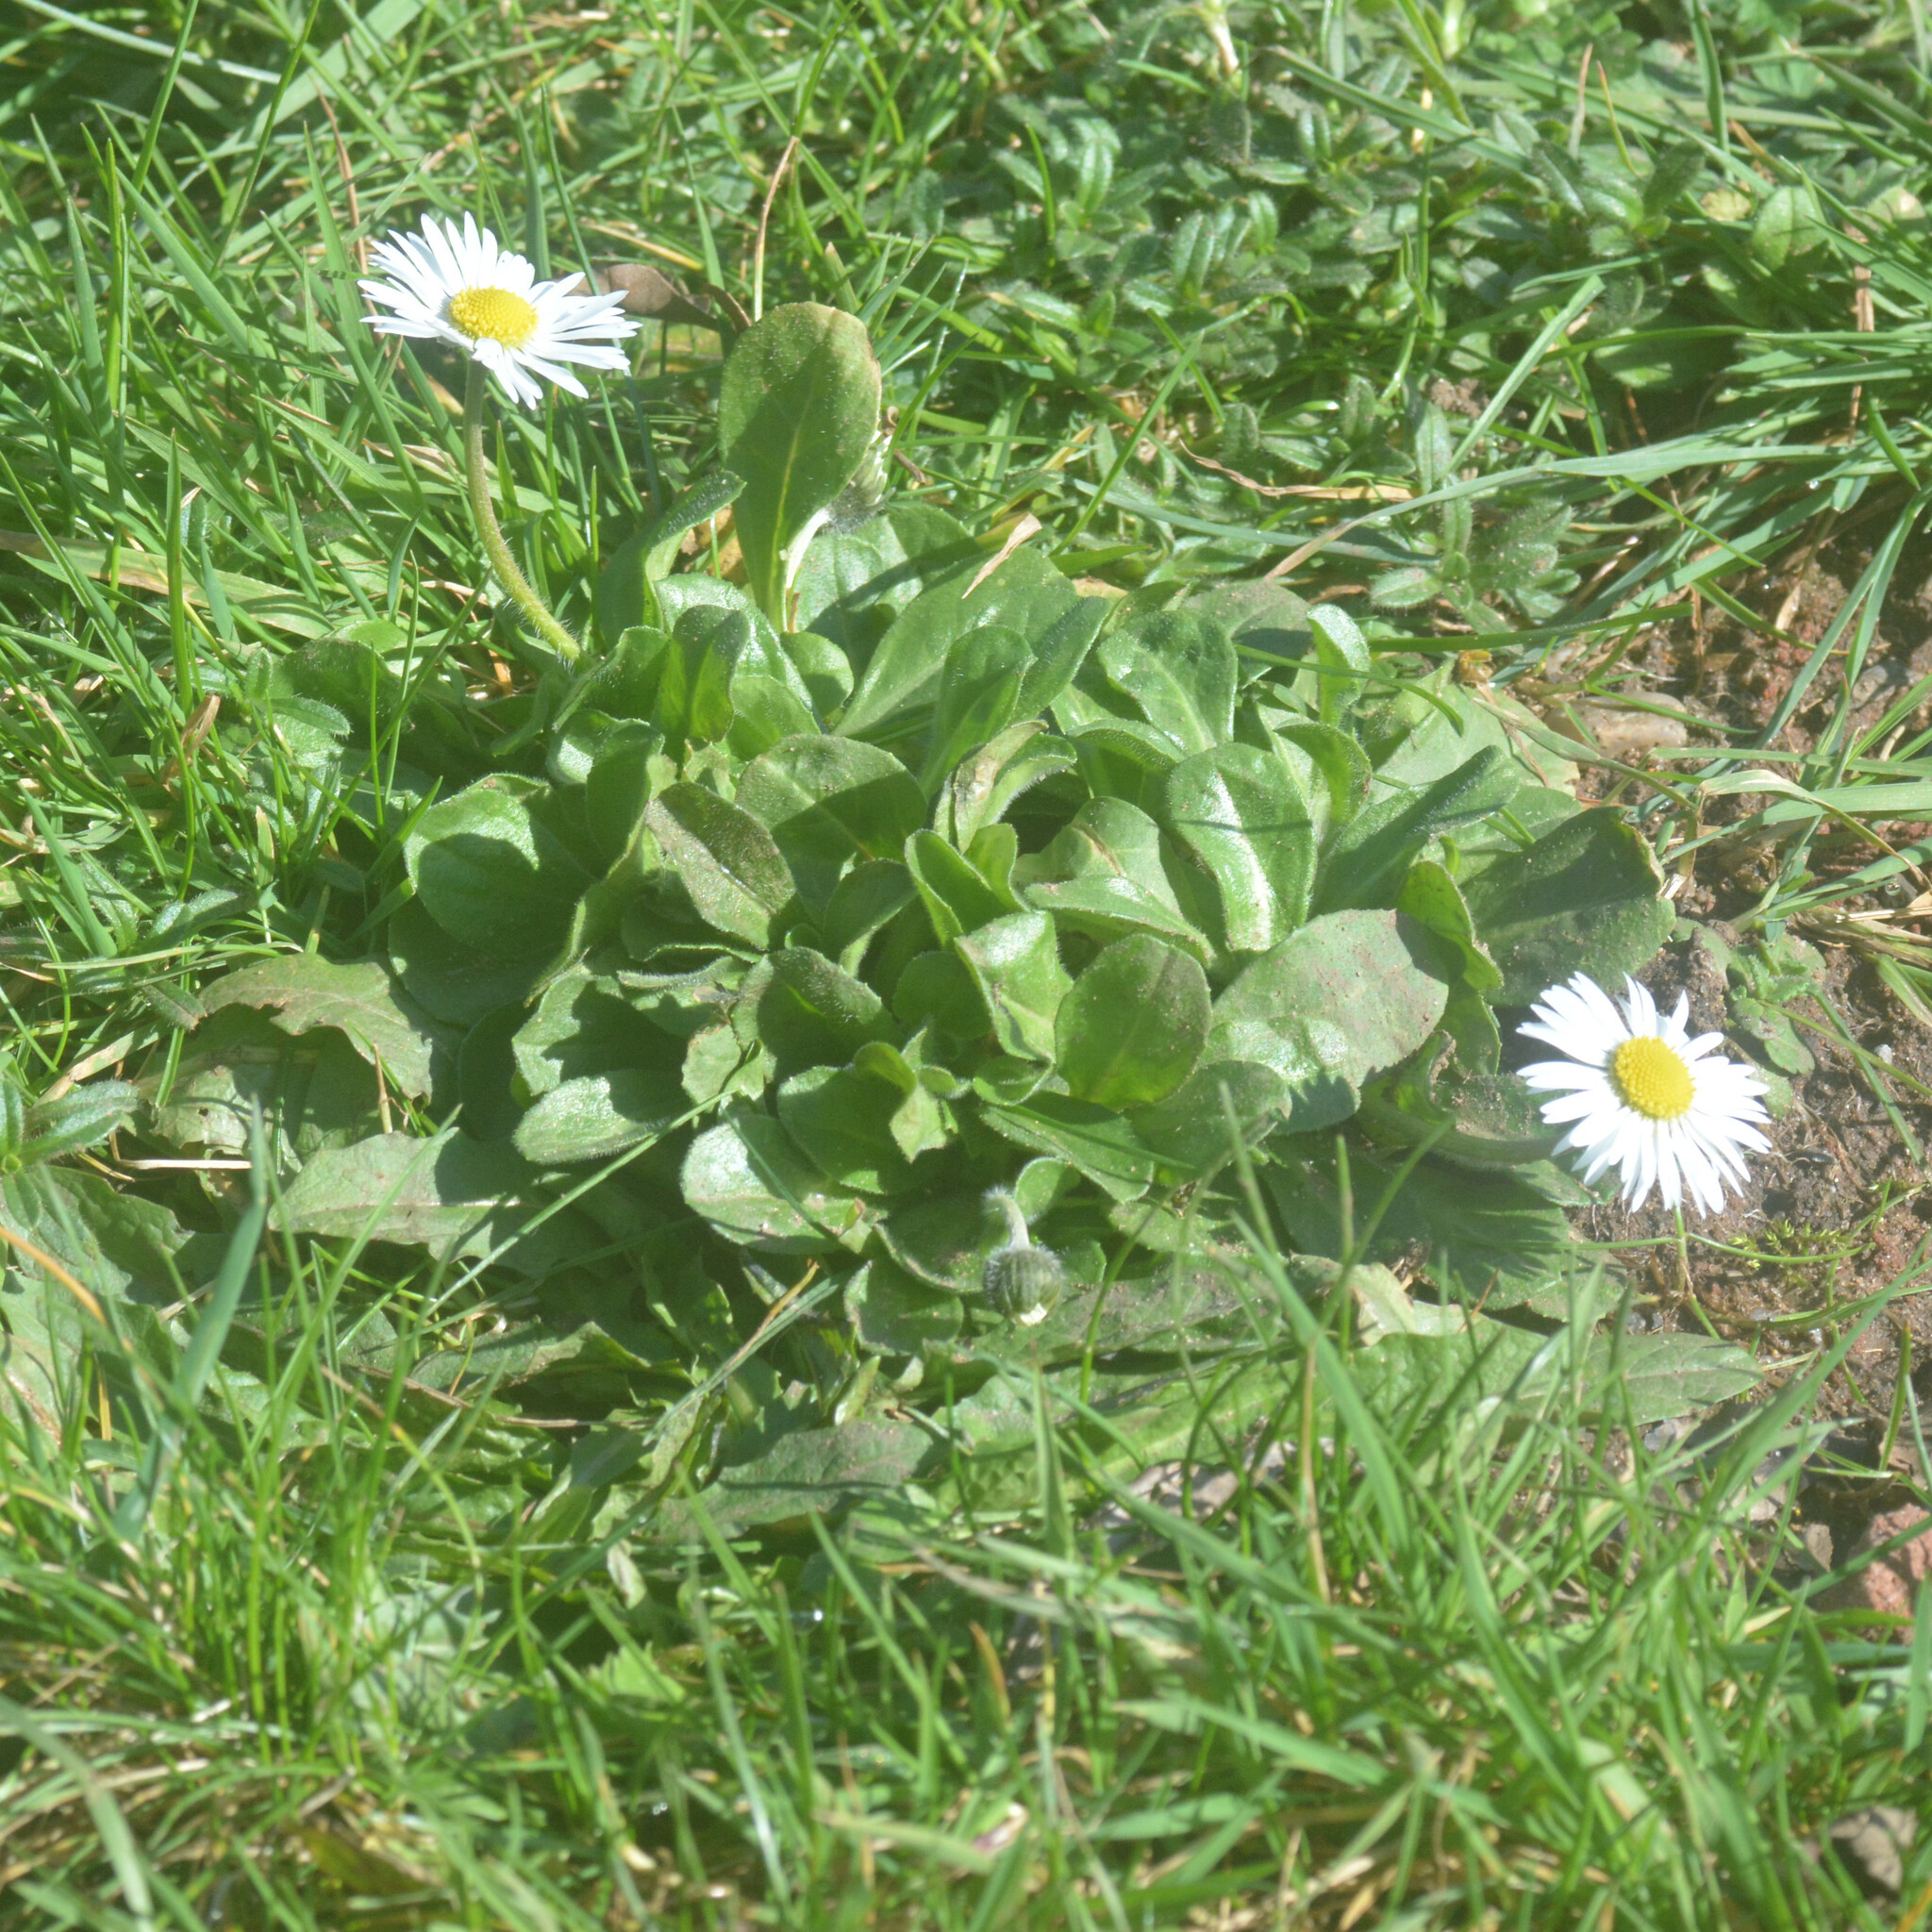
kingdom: Plantae
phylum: Tracheophyta
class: Magnoliopsida
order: Asterales
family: Asteraceae
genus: Bellis
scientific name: Bellis perennis
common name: Lawndaisy
